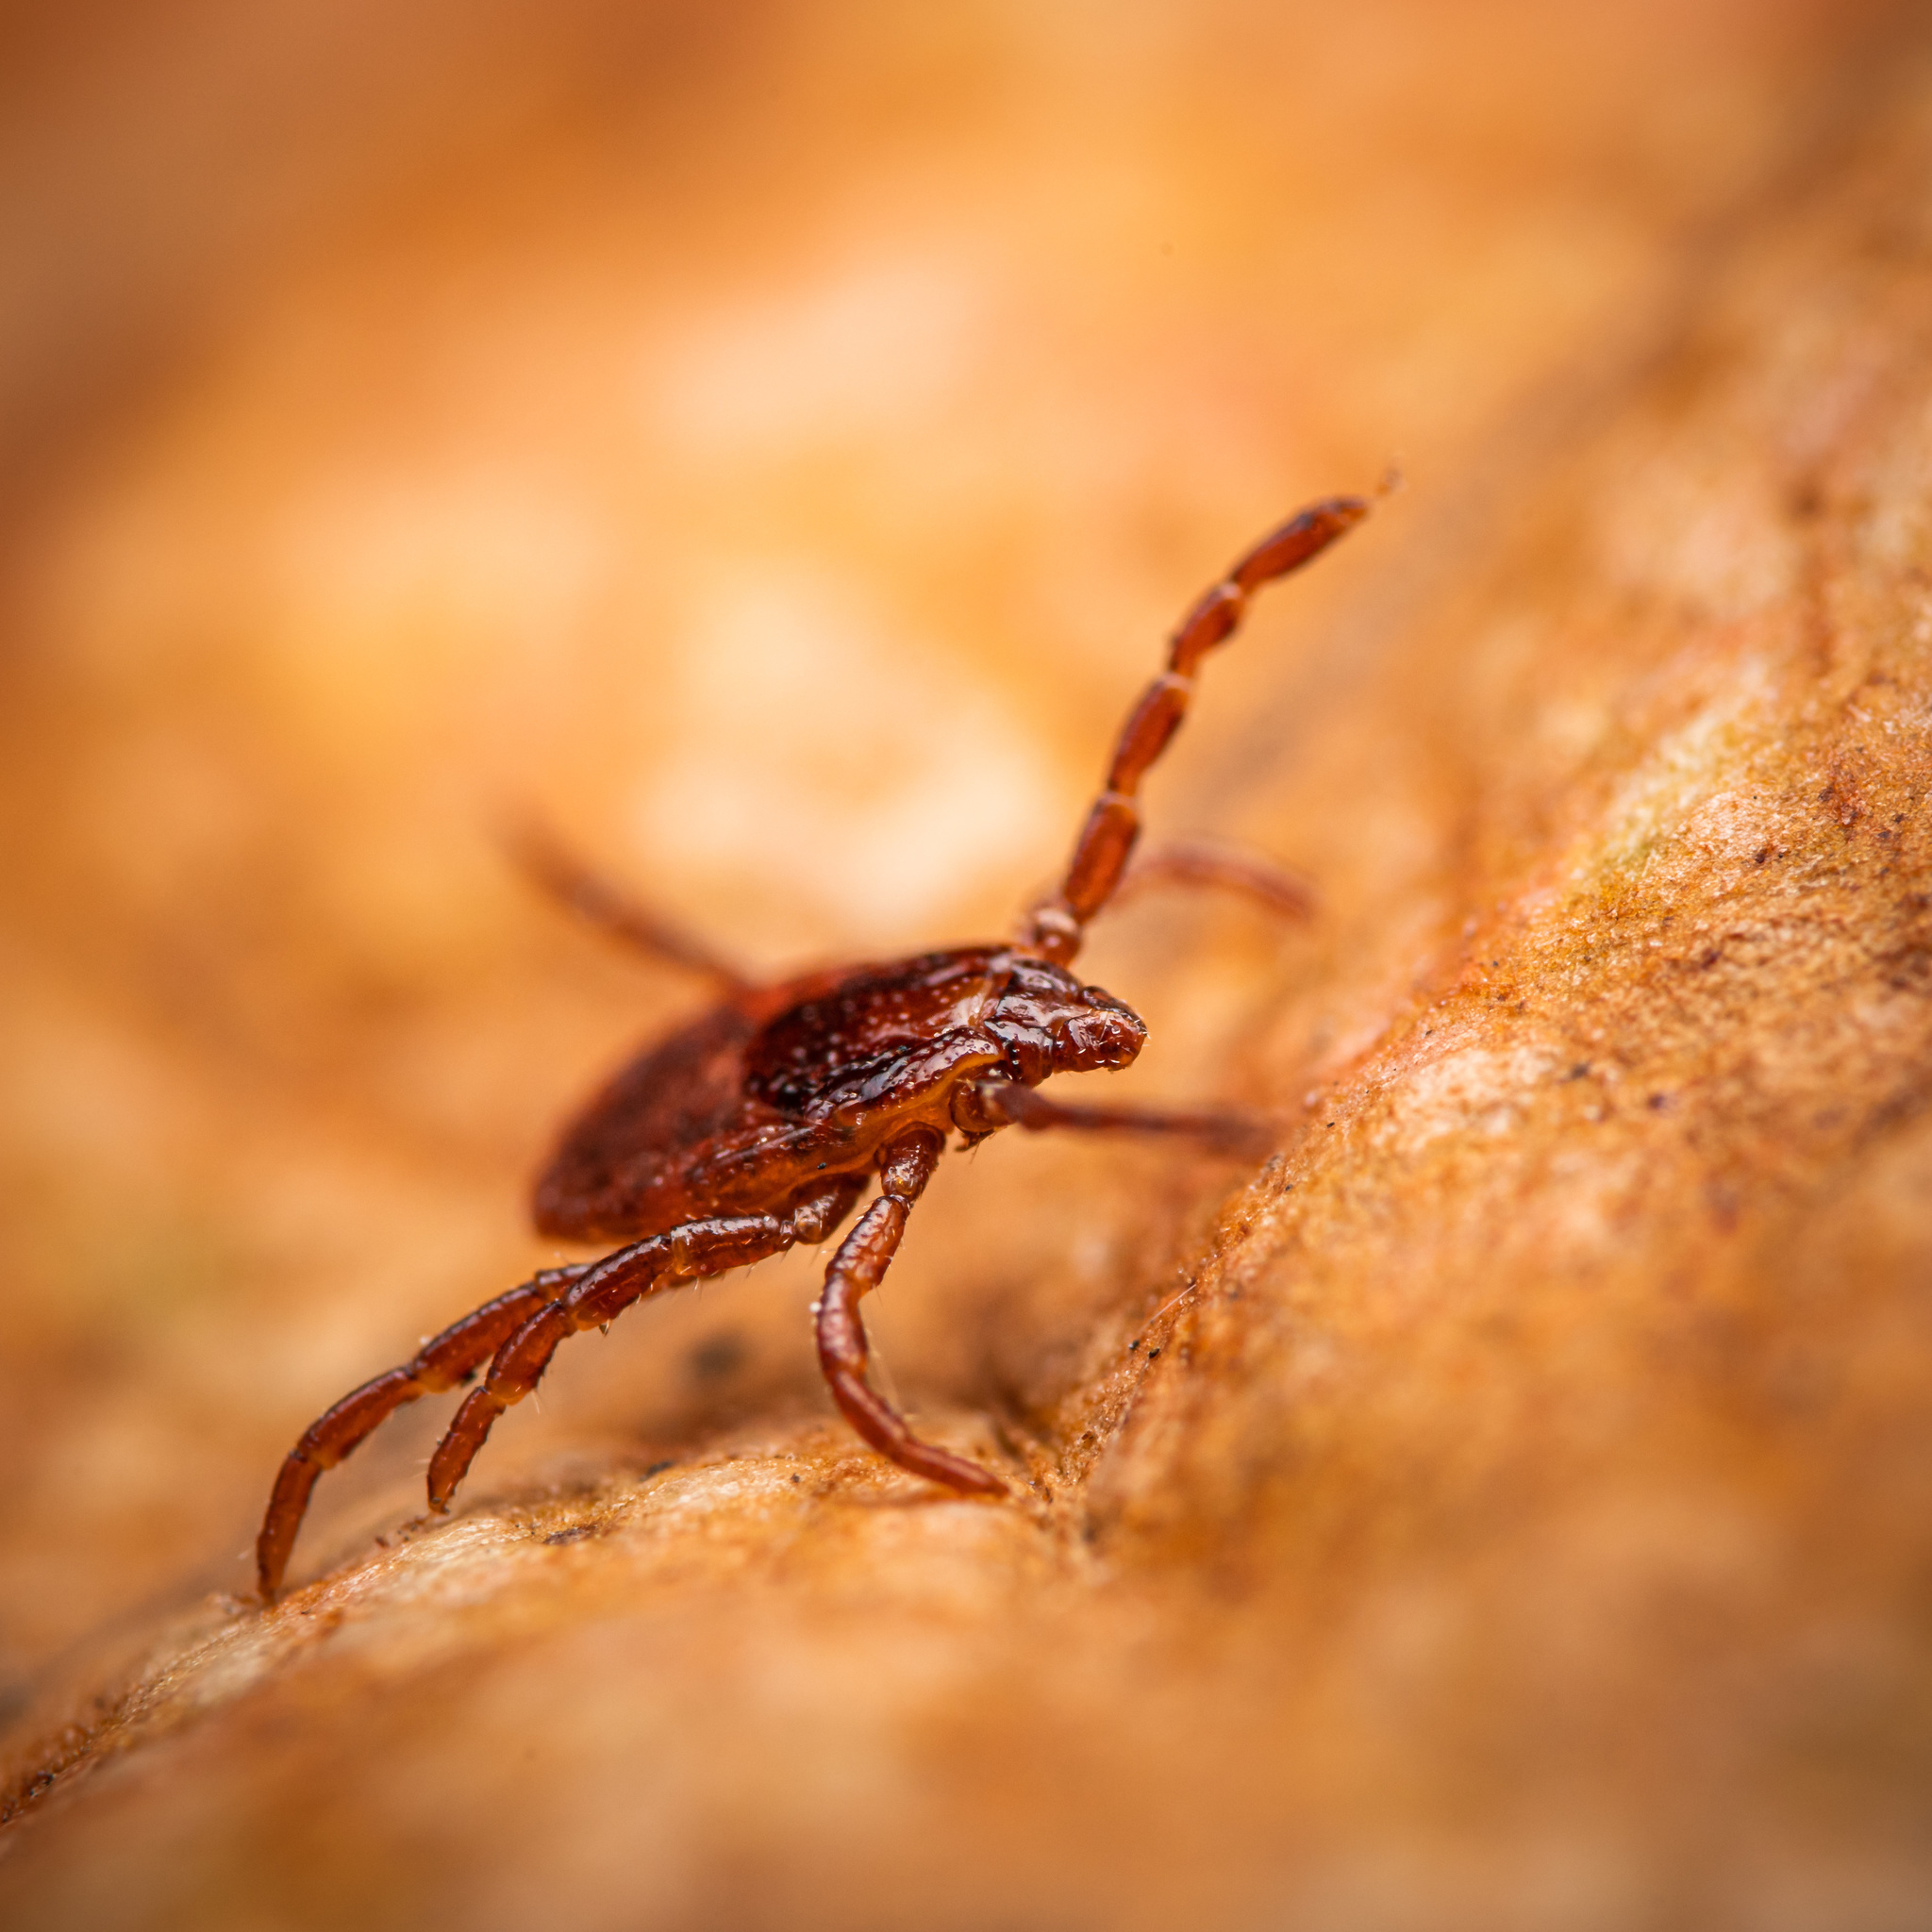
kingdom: Animalia
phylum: Arthropoda
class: Arachnida
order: Ixodida
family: Ixodidae
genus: Rhipicephalus
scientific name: Rhipicephalus sanguineus
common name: Brown dog tick
